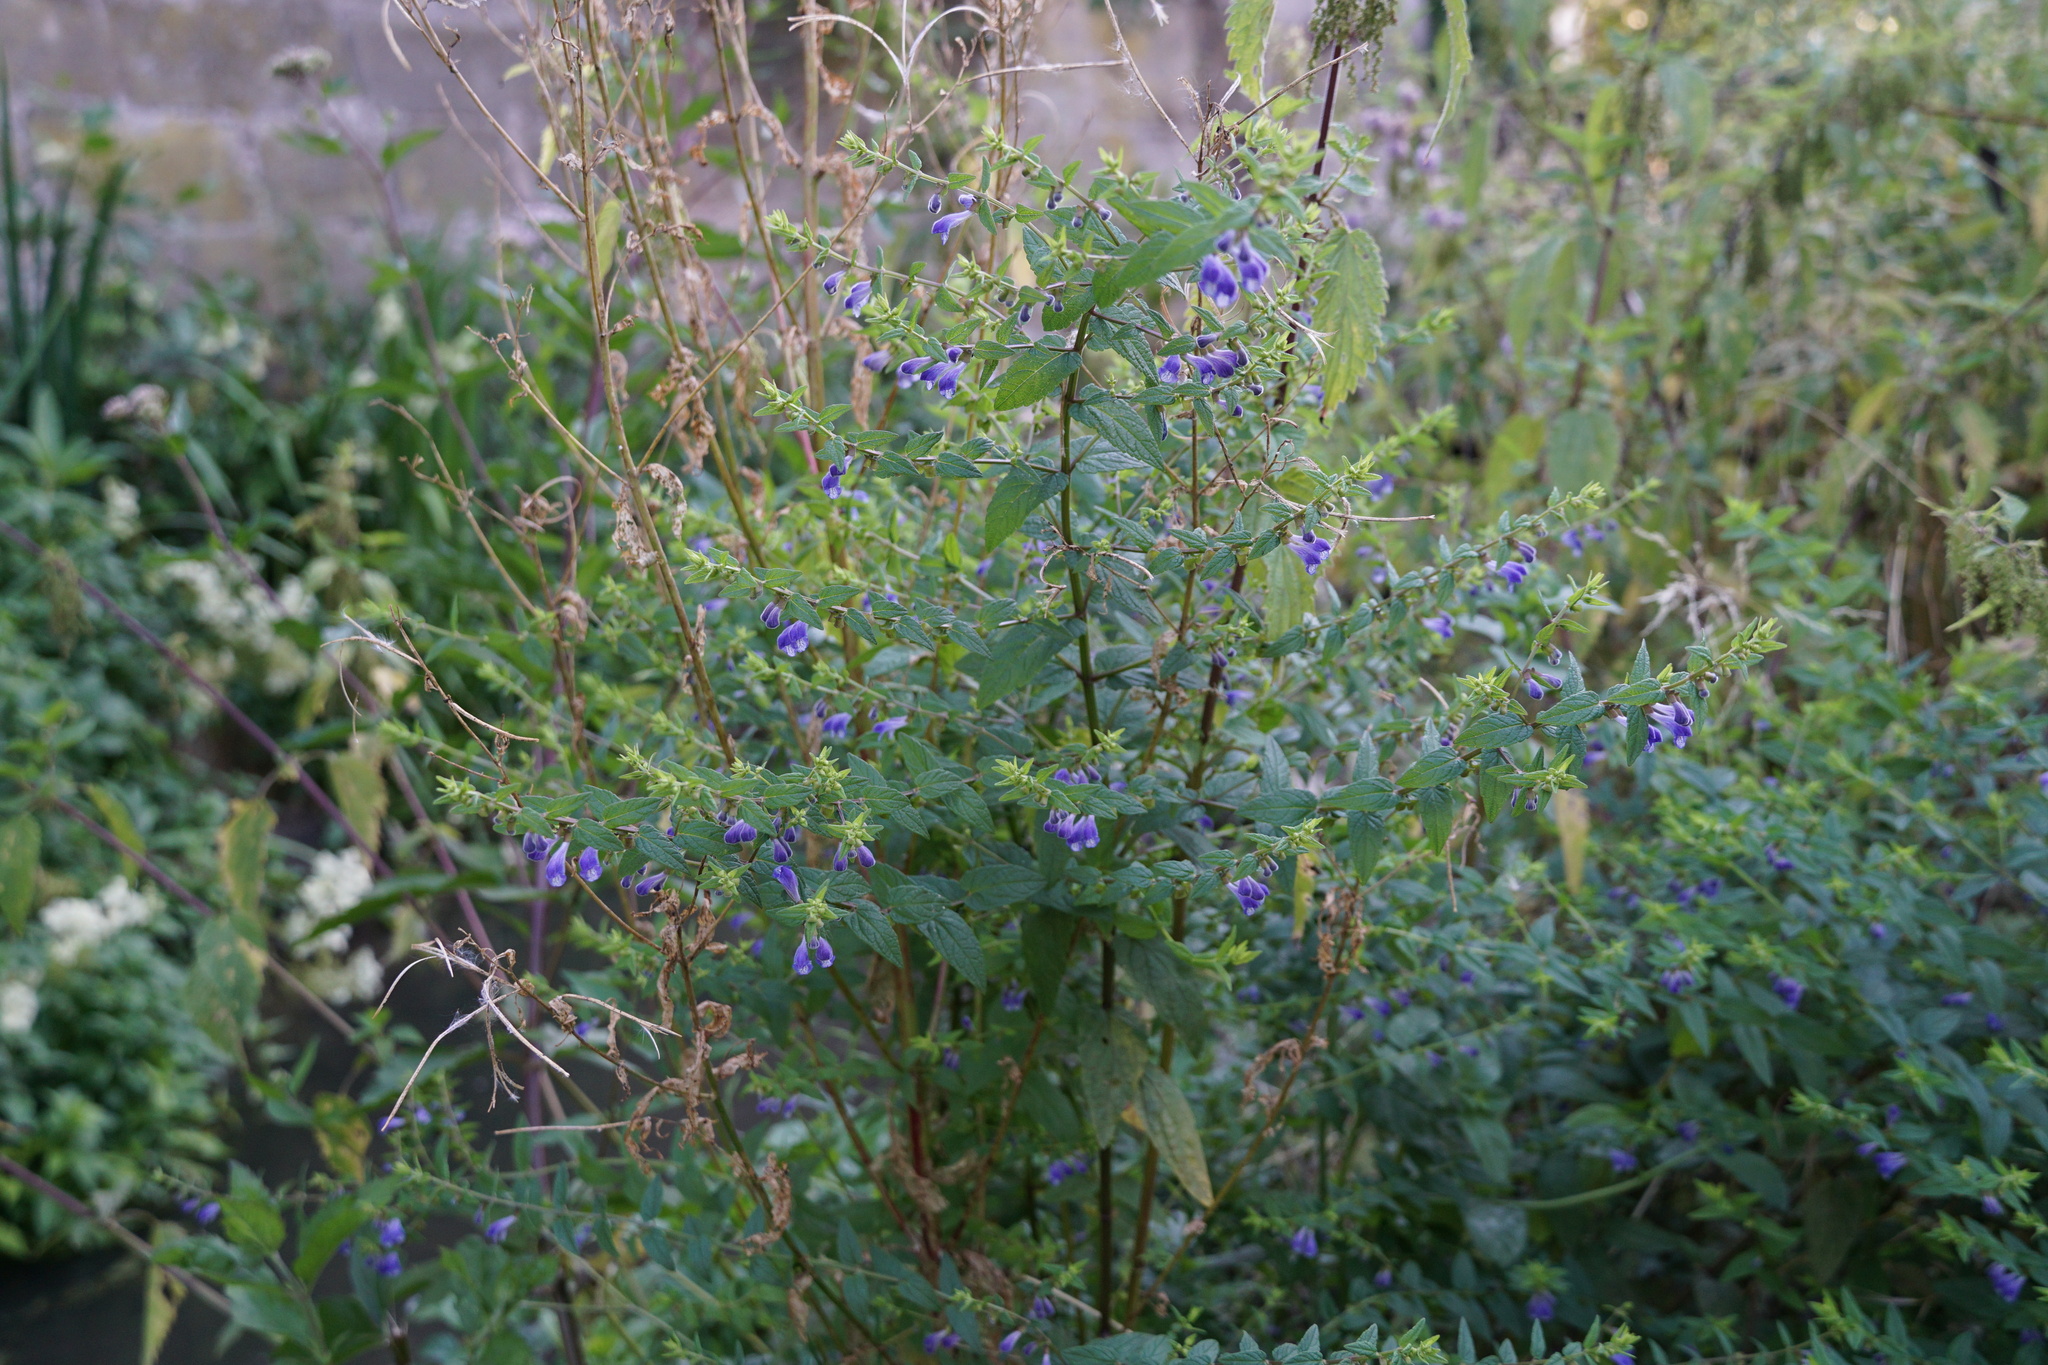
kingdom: Plantae
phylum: Tracheophyta
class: Magnoliopsida
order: Lamiales
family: Lamiaceae
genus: Scutellaria
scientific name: Scutellaria galericulata
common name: Skullcap
